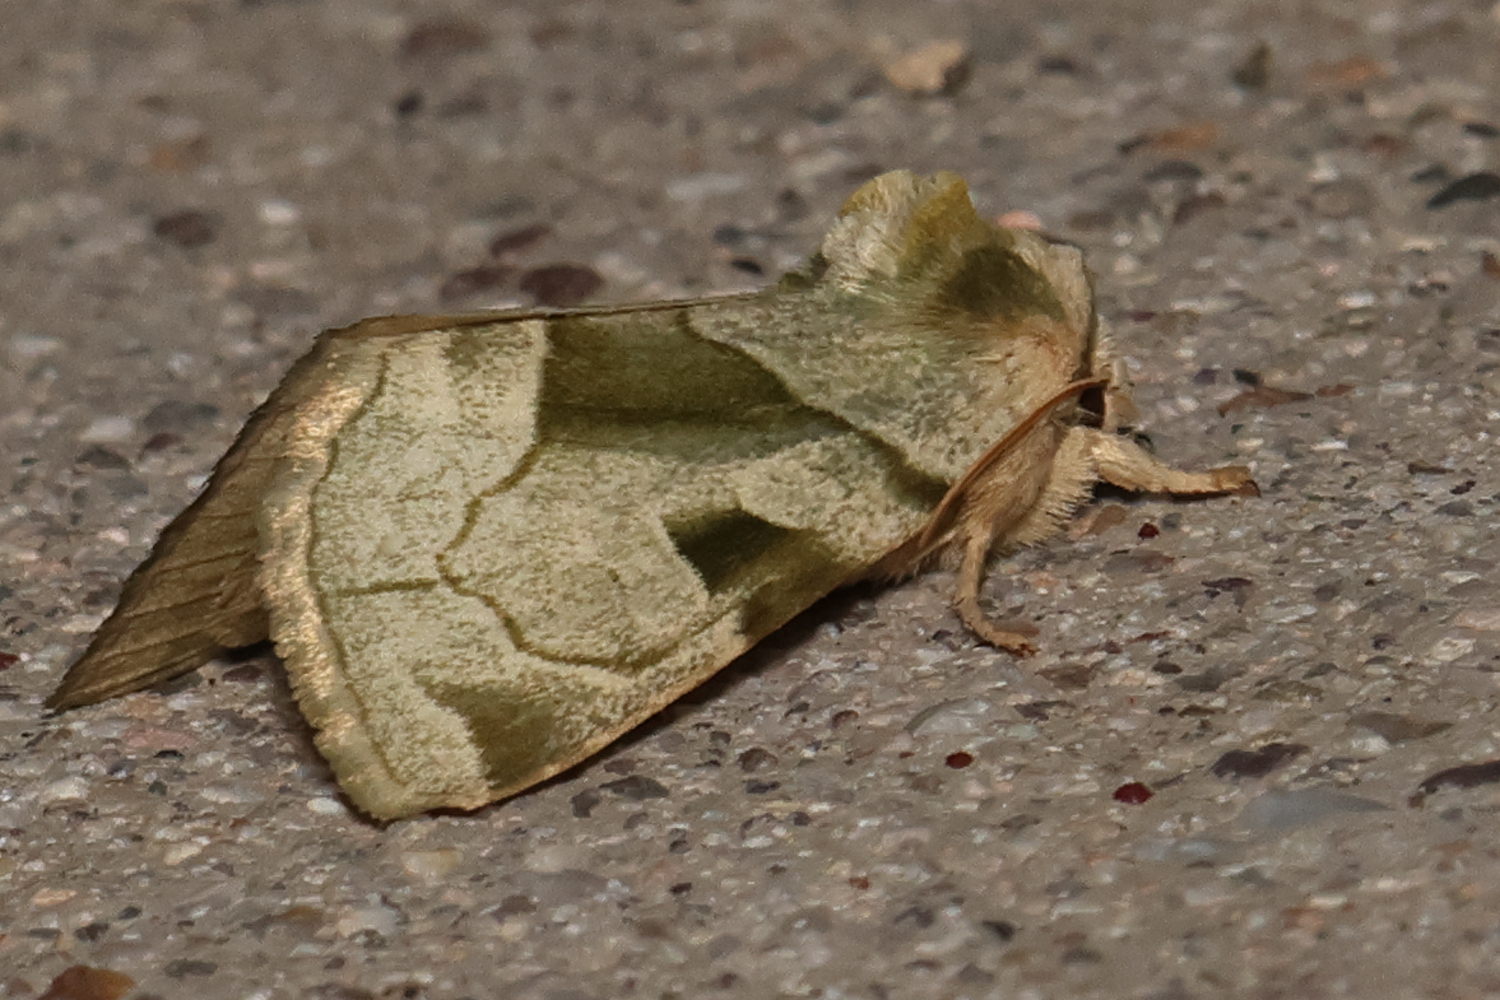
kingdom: Animalia
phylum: Arthropoda
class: Insecta
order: Lepidoptera
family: Noctuidae
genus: Oslaria
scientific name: Oslaria viridifera
